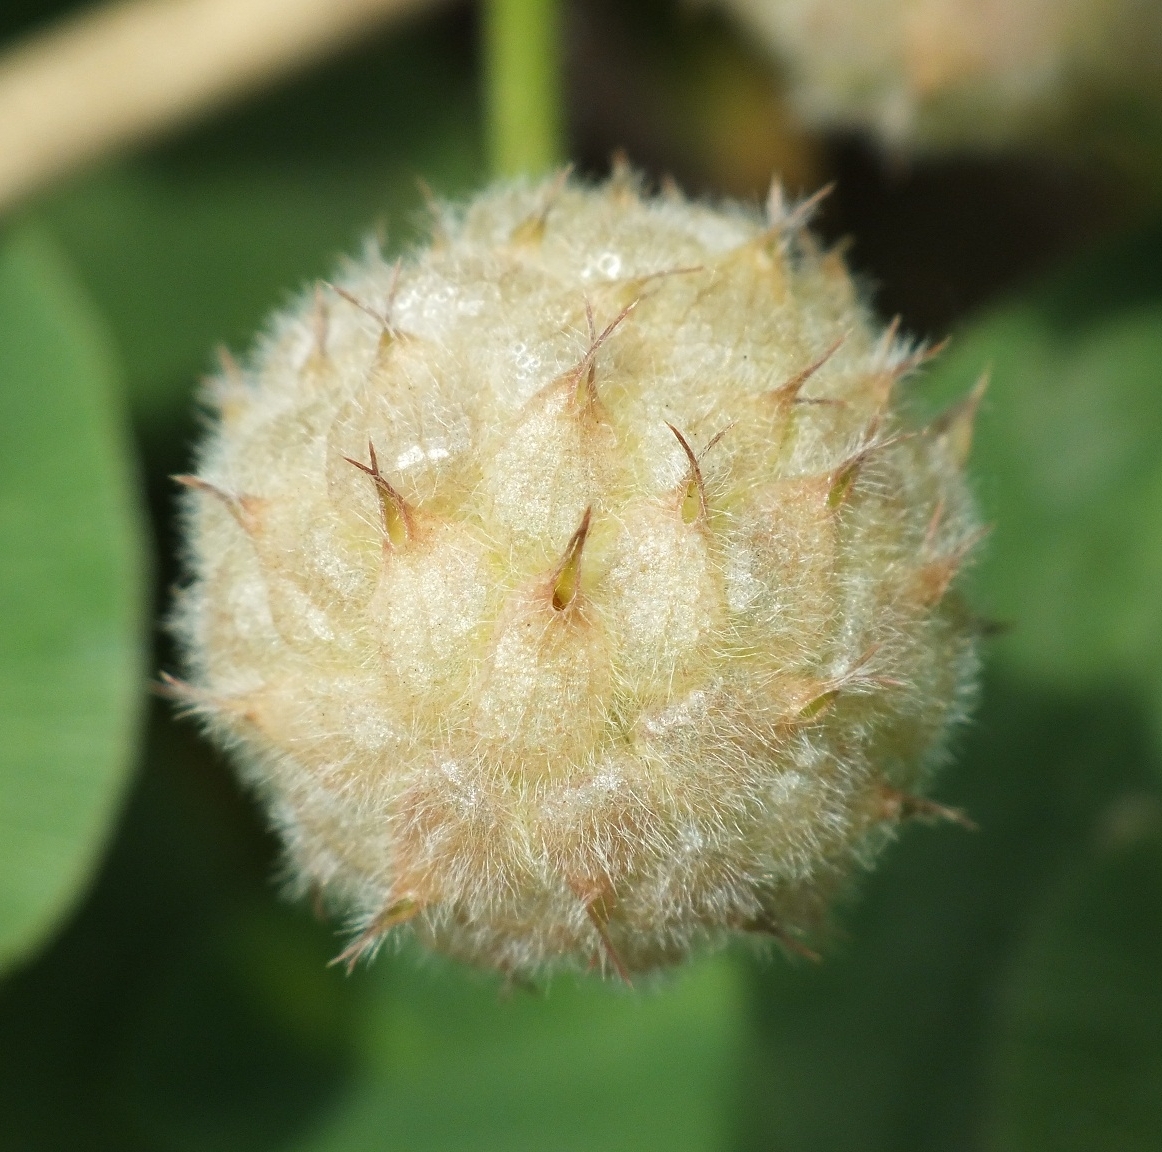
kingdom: Plantae
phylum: Tracheophyta
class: Magnoliopsida
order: Fabales
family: Fabaceae
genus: Trifolium
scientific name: Trifolium fragiferum
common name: Strawberry clover
